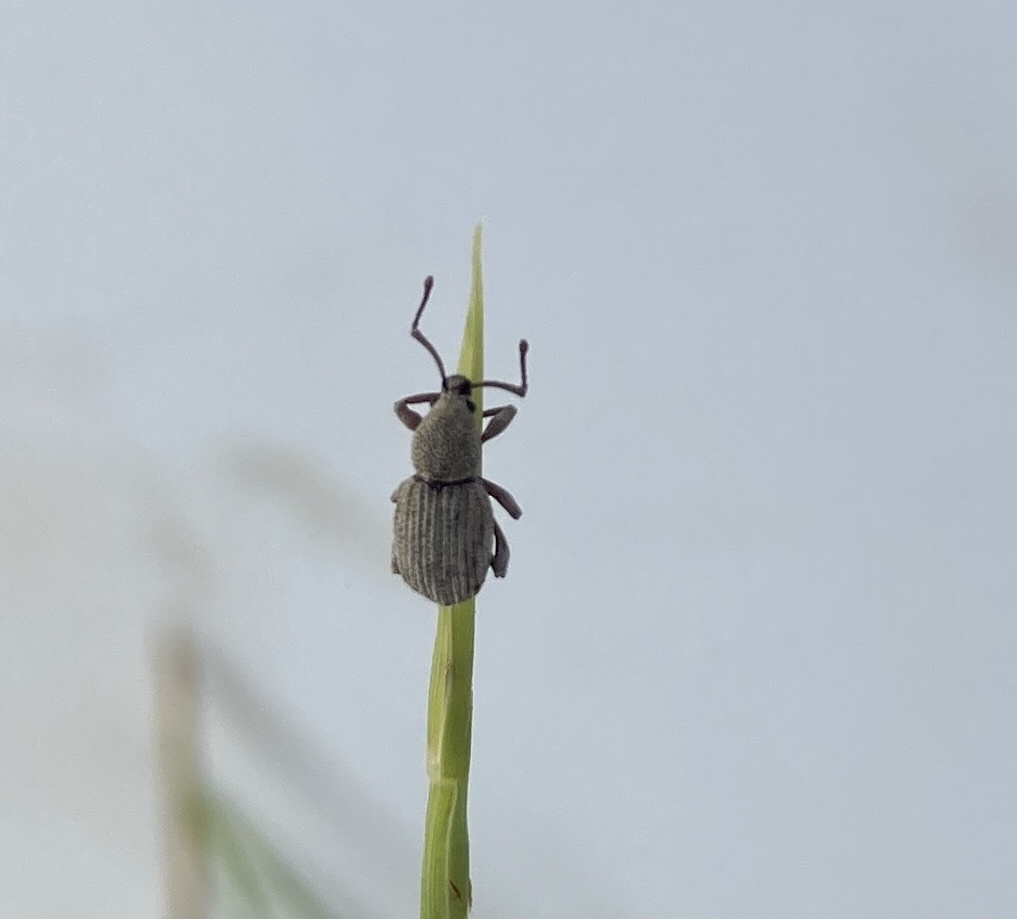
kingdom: Animalia
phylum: Arthropoda
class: Insecta
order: Coleoptera
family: Curculionidae
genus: Platysimus
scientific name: Platysimus insularis
